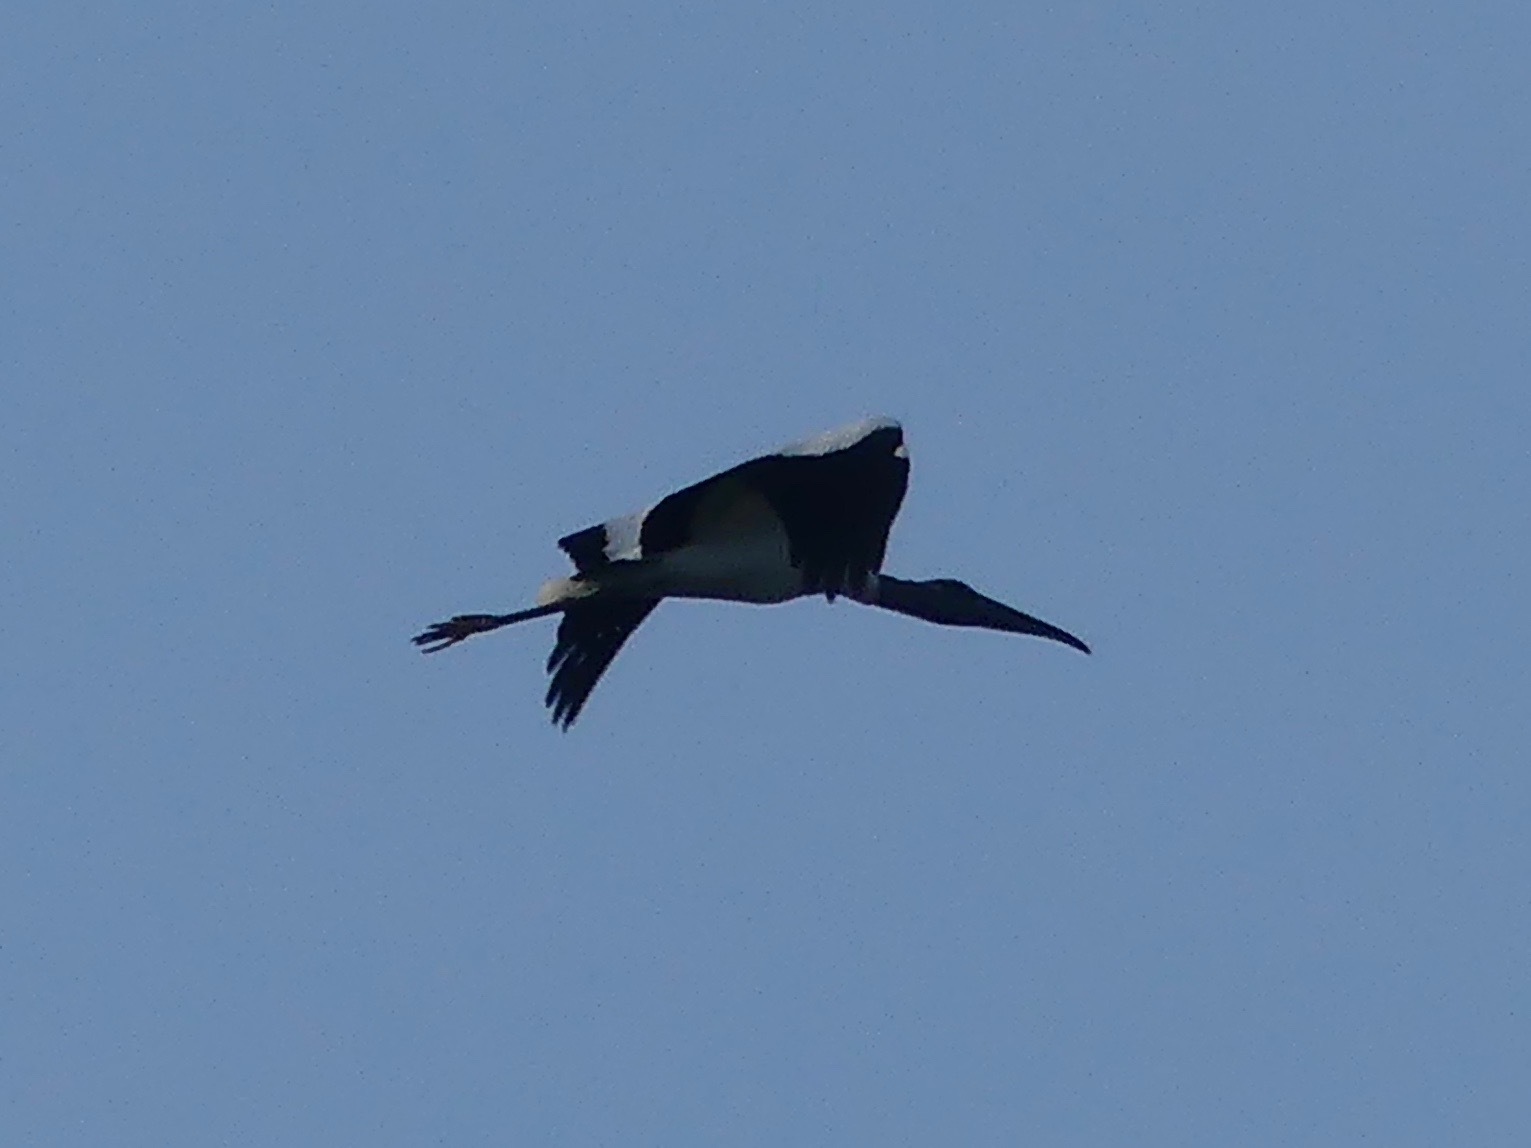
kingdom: Animalia
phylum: Chordata
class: Aves
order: Ciconiiformes
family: Ciconiidae
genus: Mycteria
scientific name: Mycteria americana
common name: Wood stork
